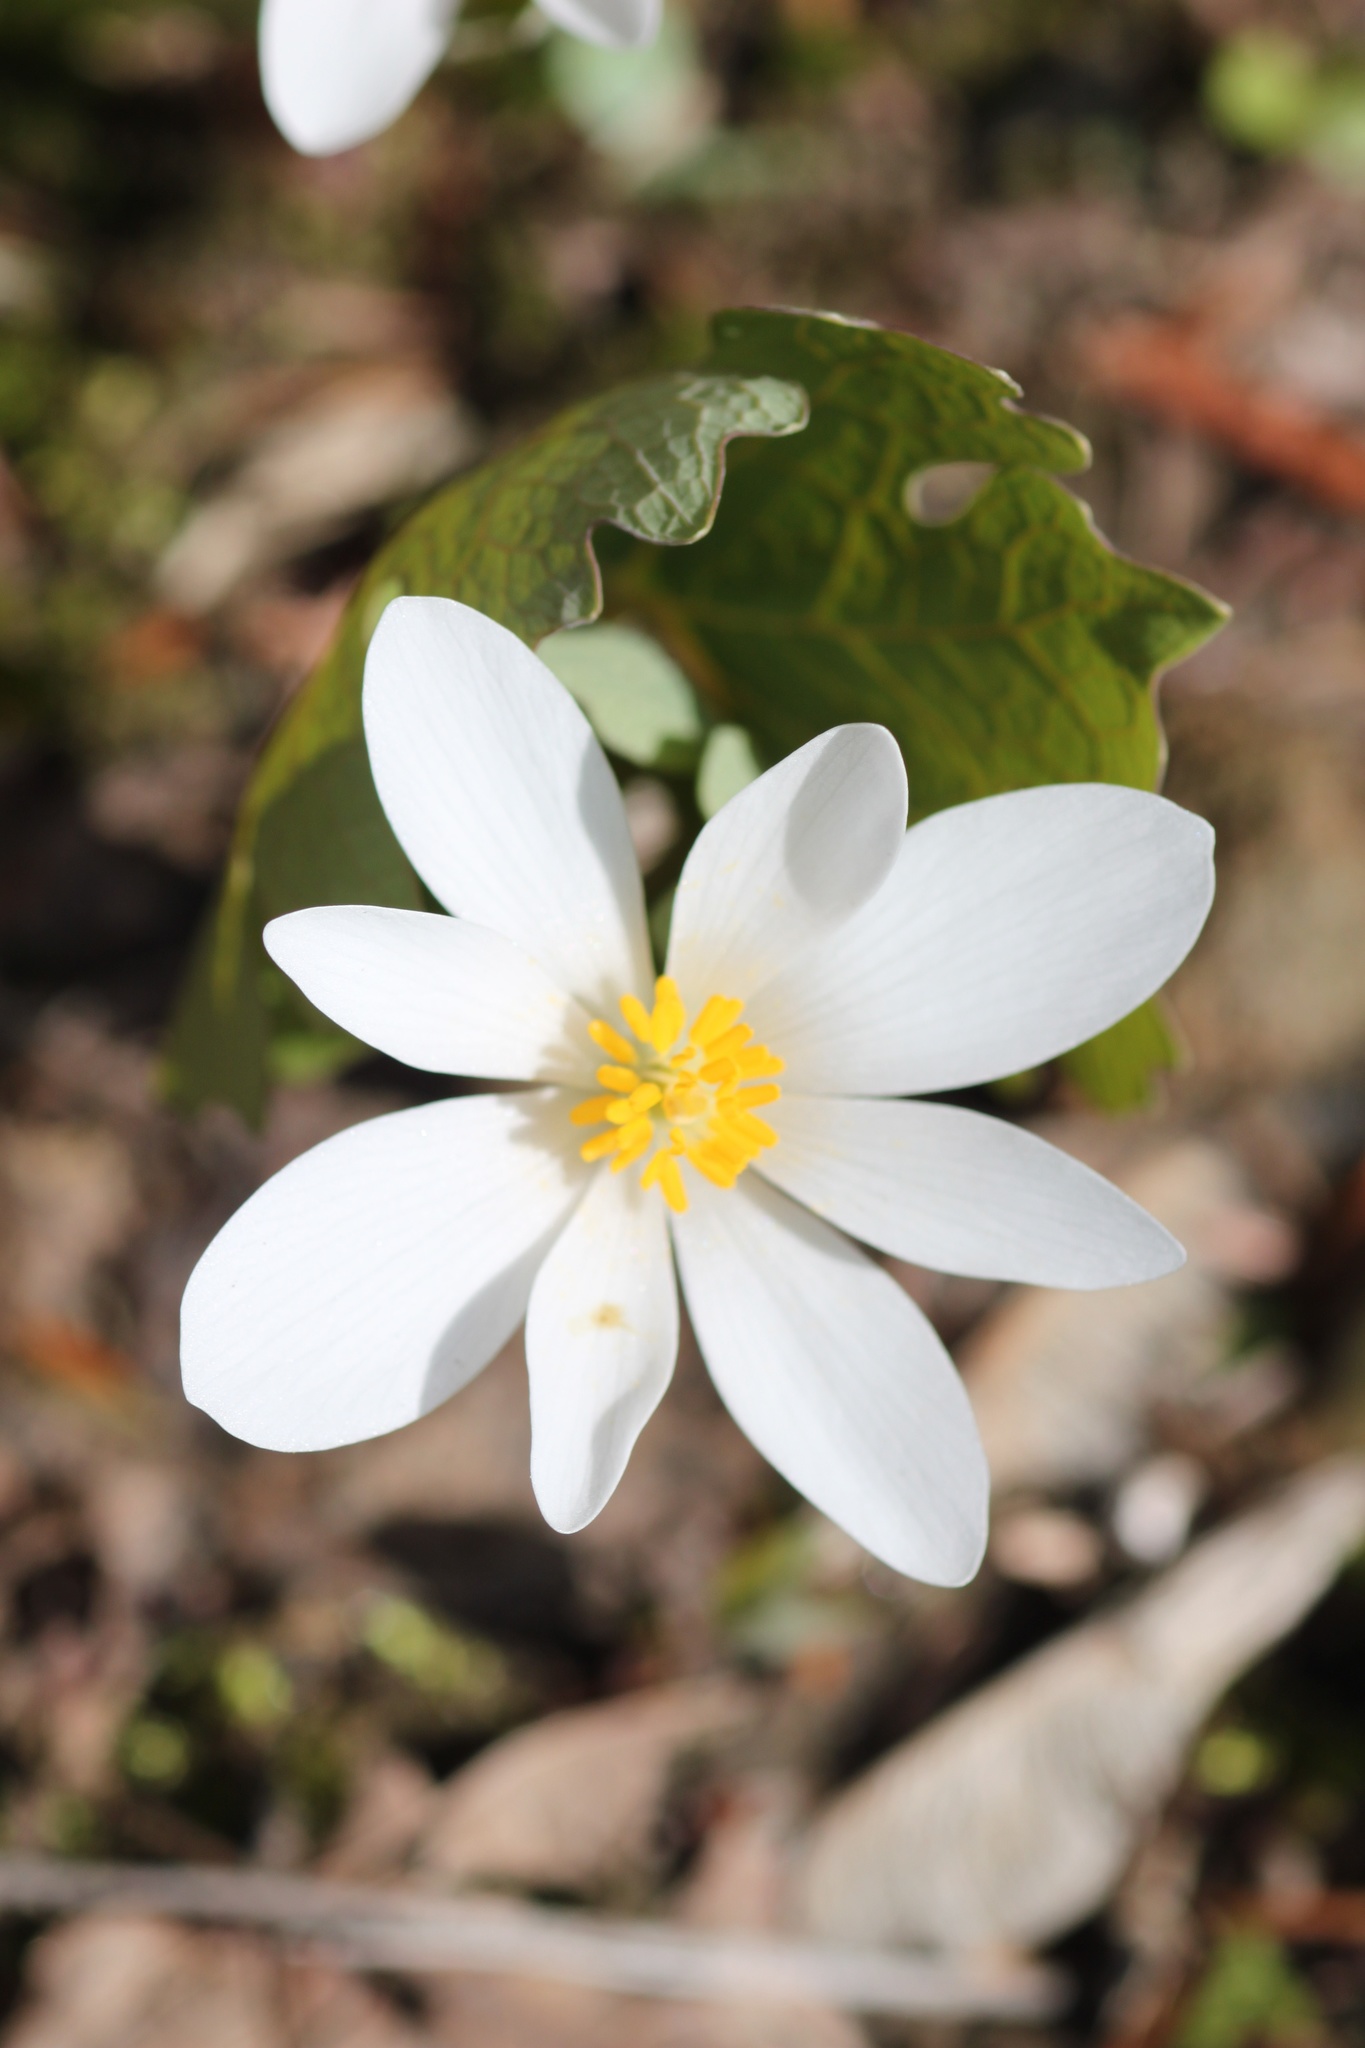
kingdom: Plantae
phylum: Tracheophyta
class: Magnoliopsida
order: Ranunculales
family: Papaveraceae
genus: Sanguinaria
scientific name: Sanguinaria canadensis
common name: Bloodroot
